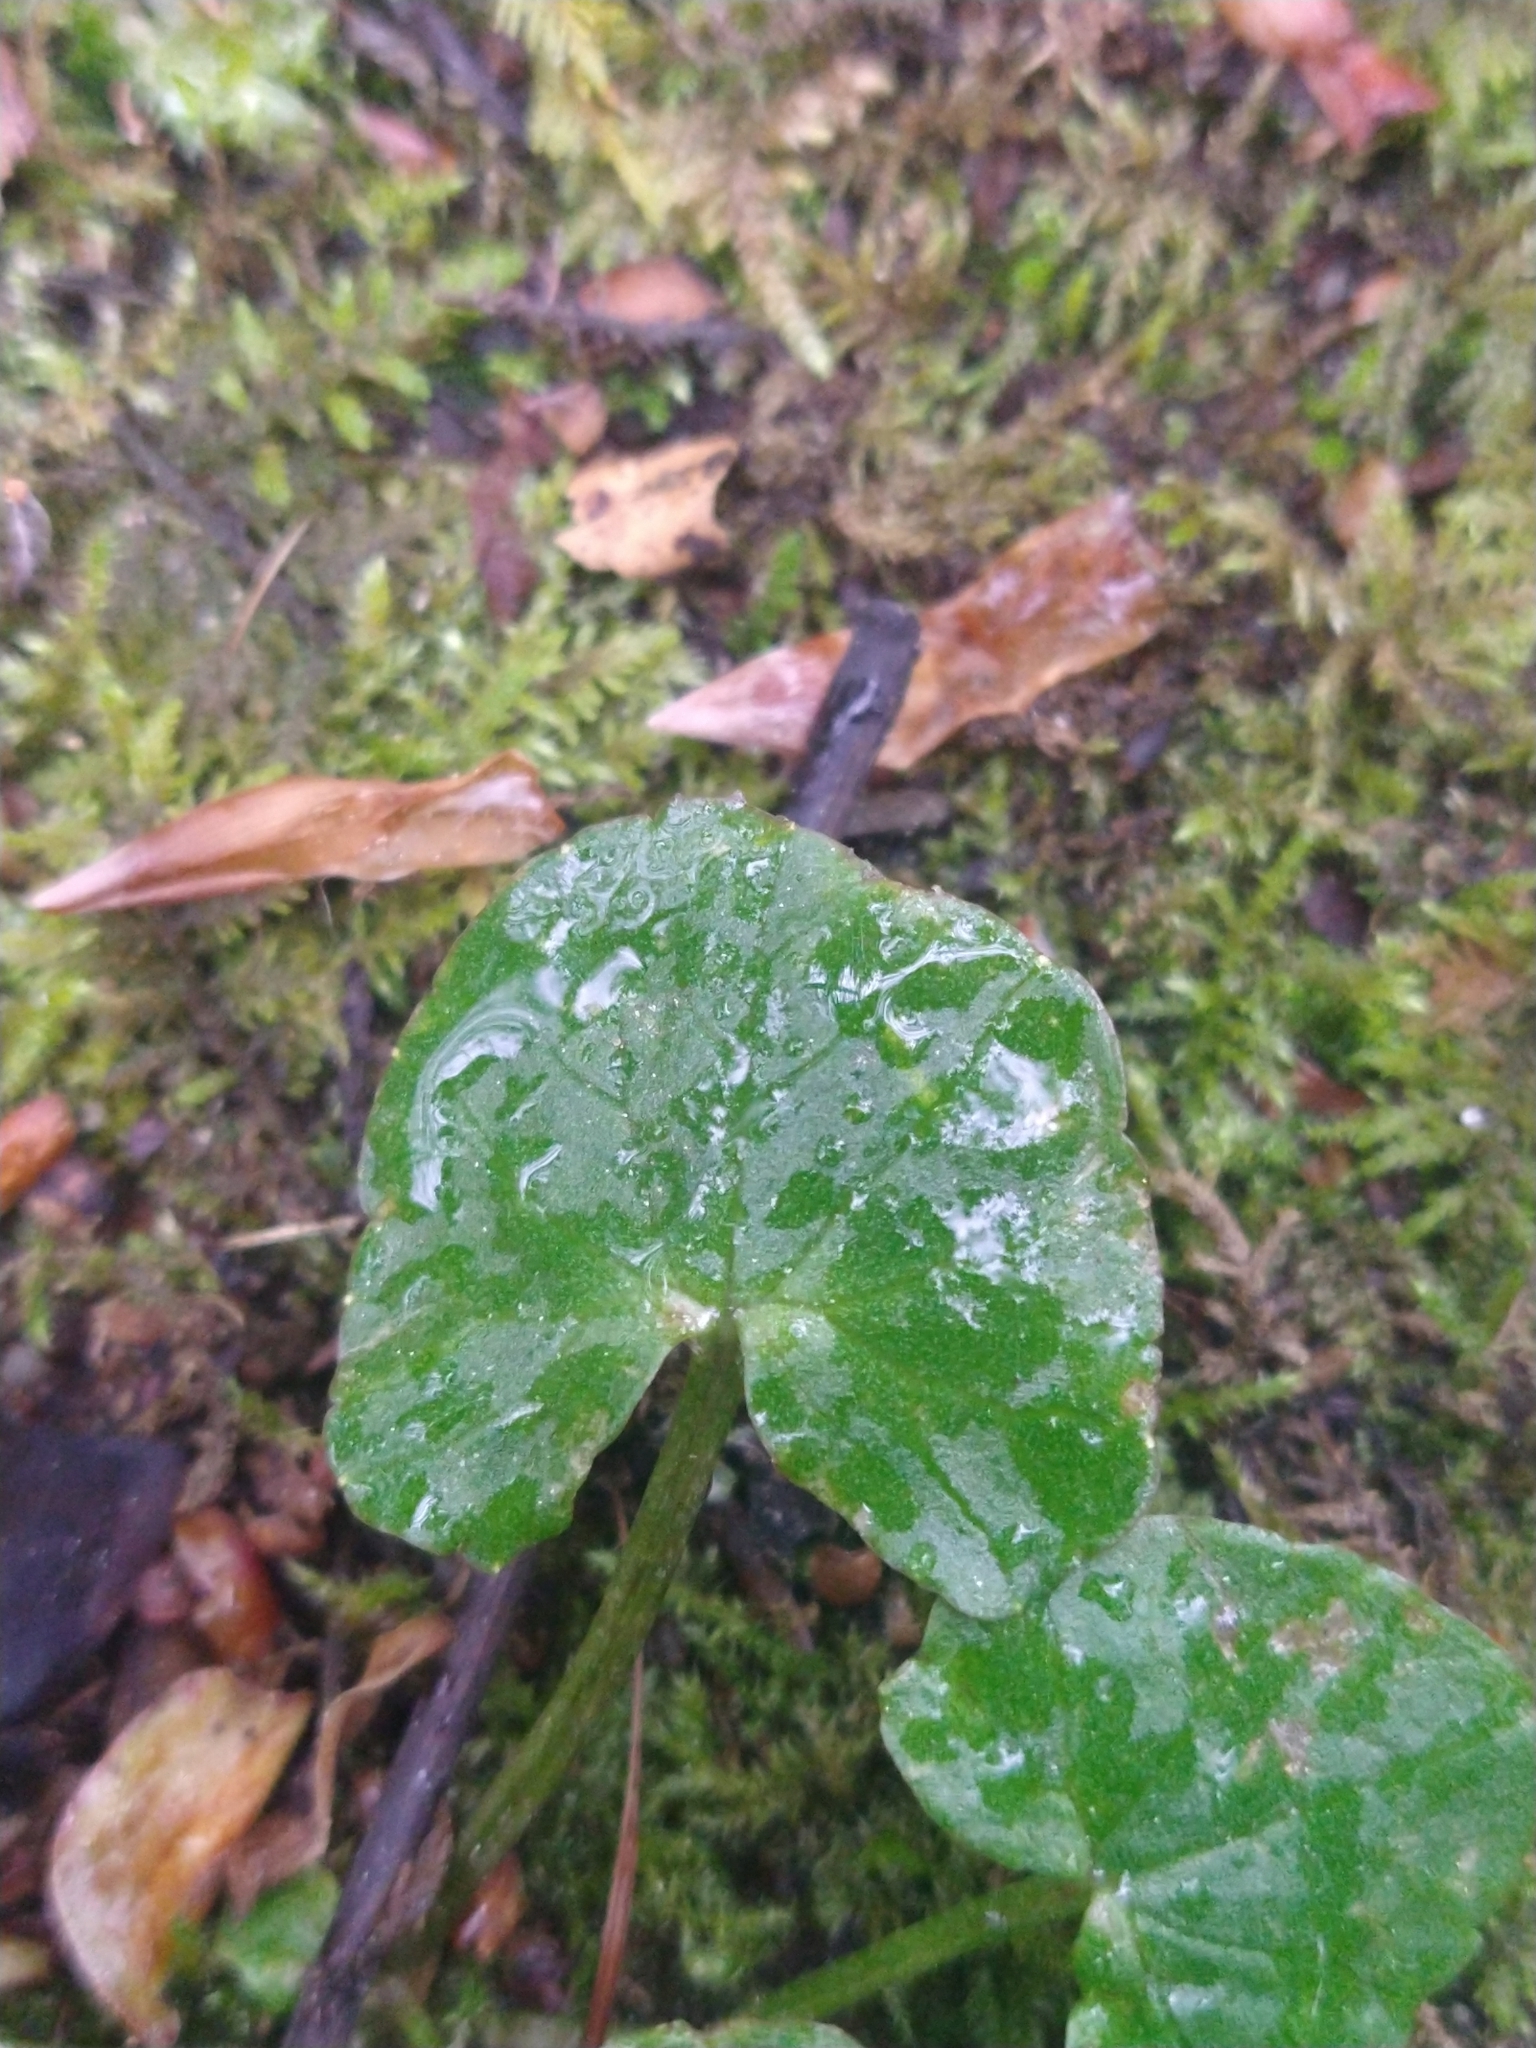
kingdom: Plantae
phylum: Tracheophyta
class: Magnoliopsida
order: Ranunculales
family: Ranunculaceae
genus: Ficaria
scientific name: Ficaria verna
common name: Lesser celandine
